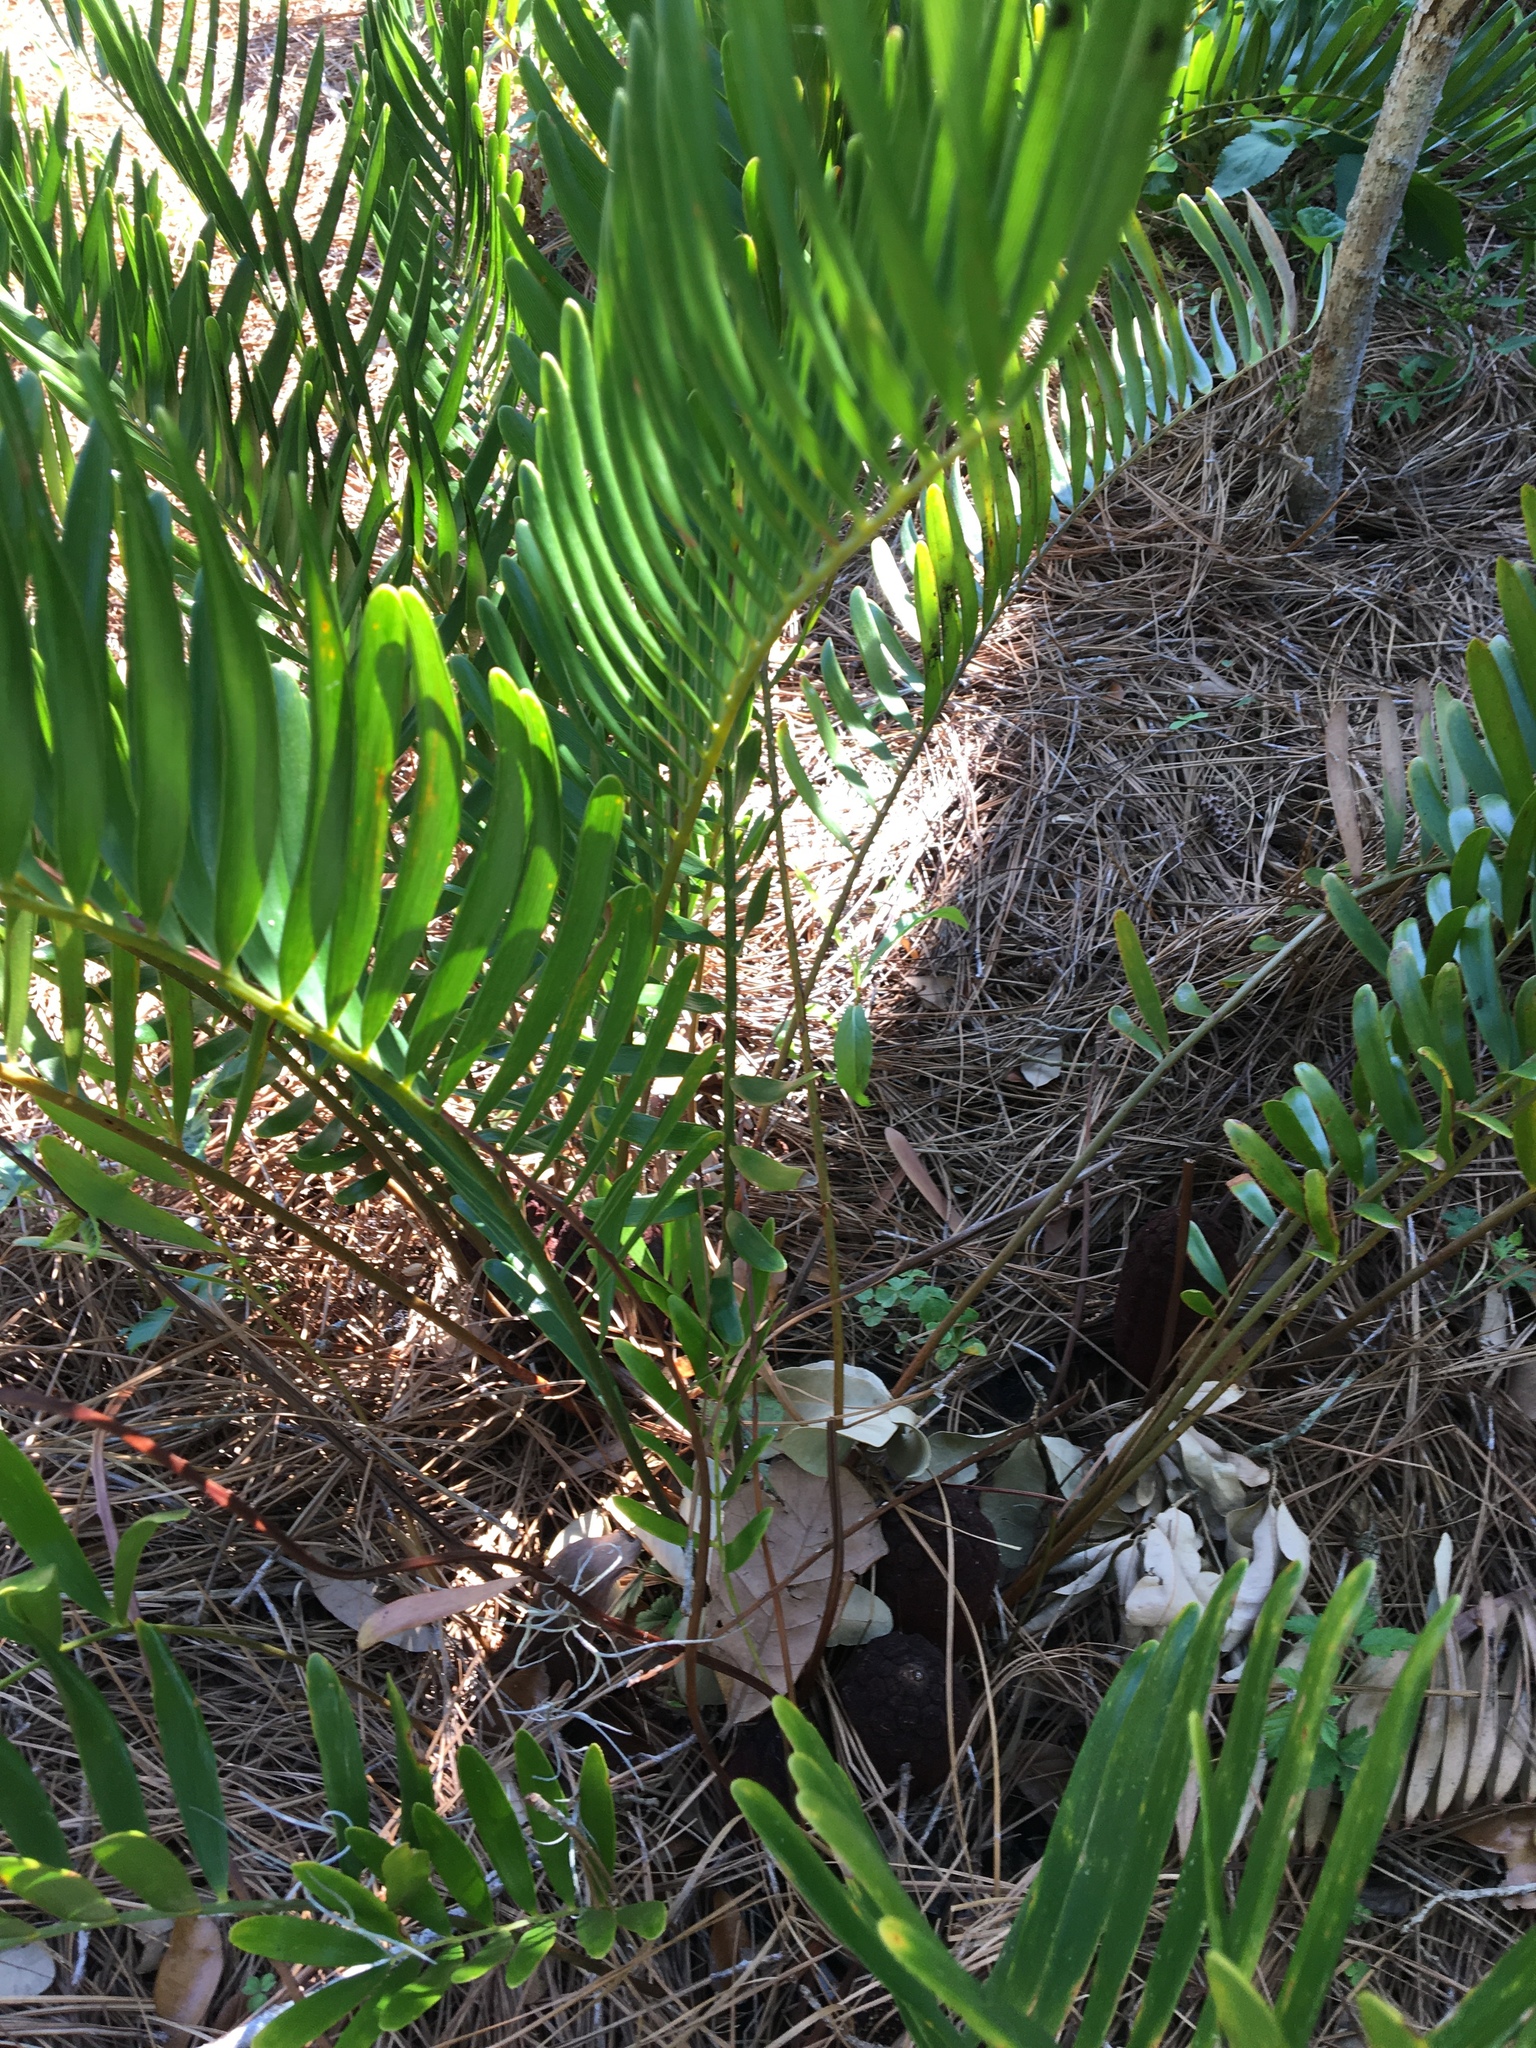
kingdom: Plantae
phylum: Tracheophyta
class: Cycadopsida
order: Cycadales
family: Zamiaceae
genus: Zamia
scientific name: Zamia integrifolia
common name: Florida arrowroot
